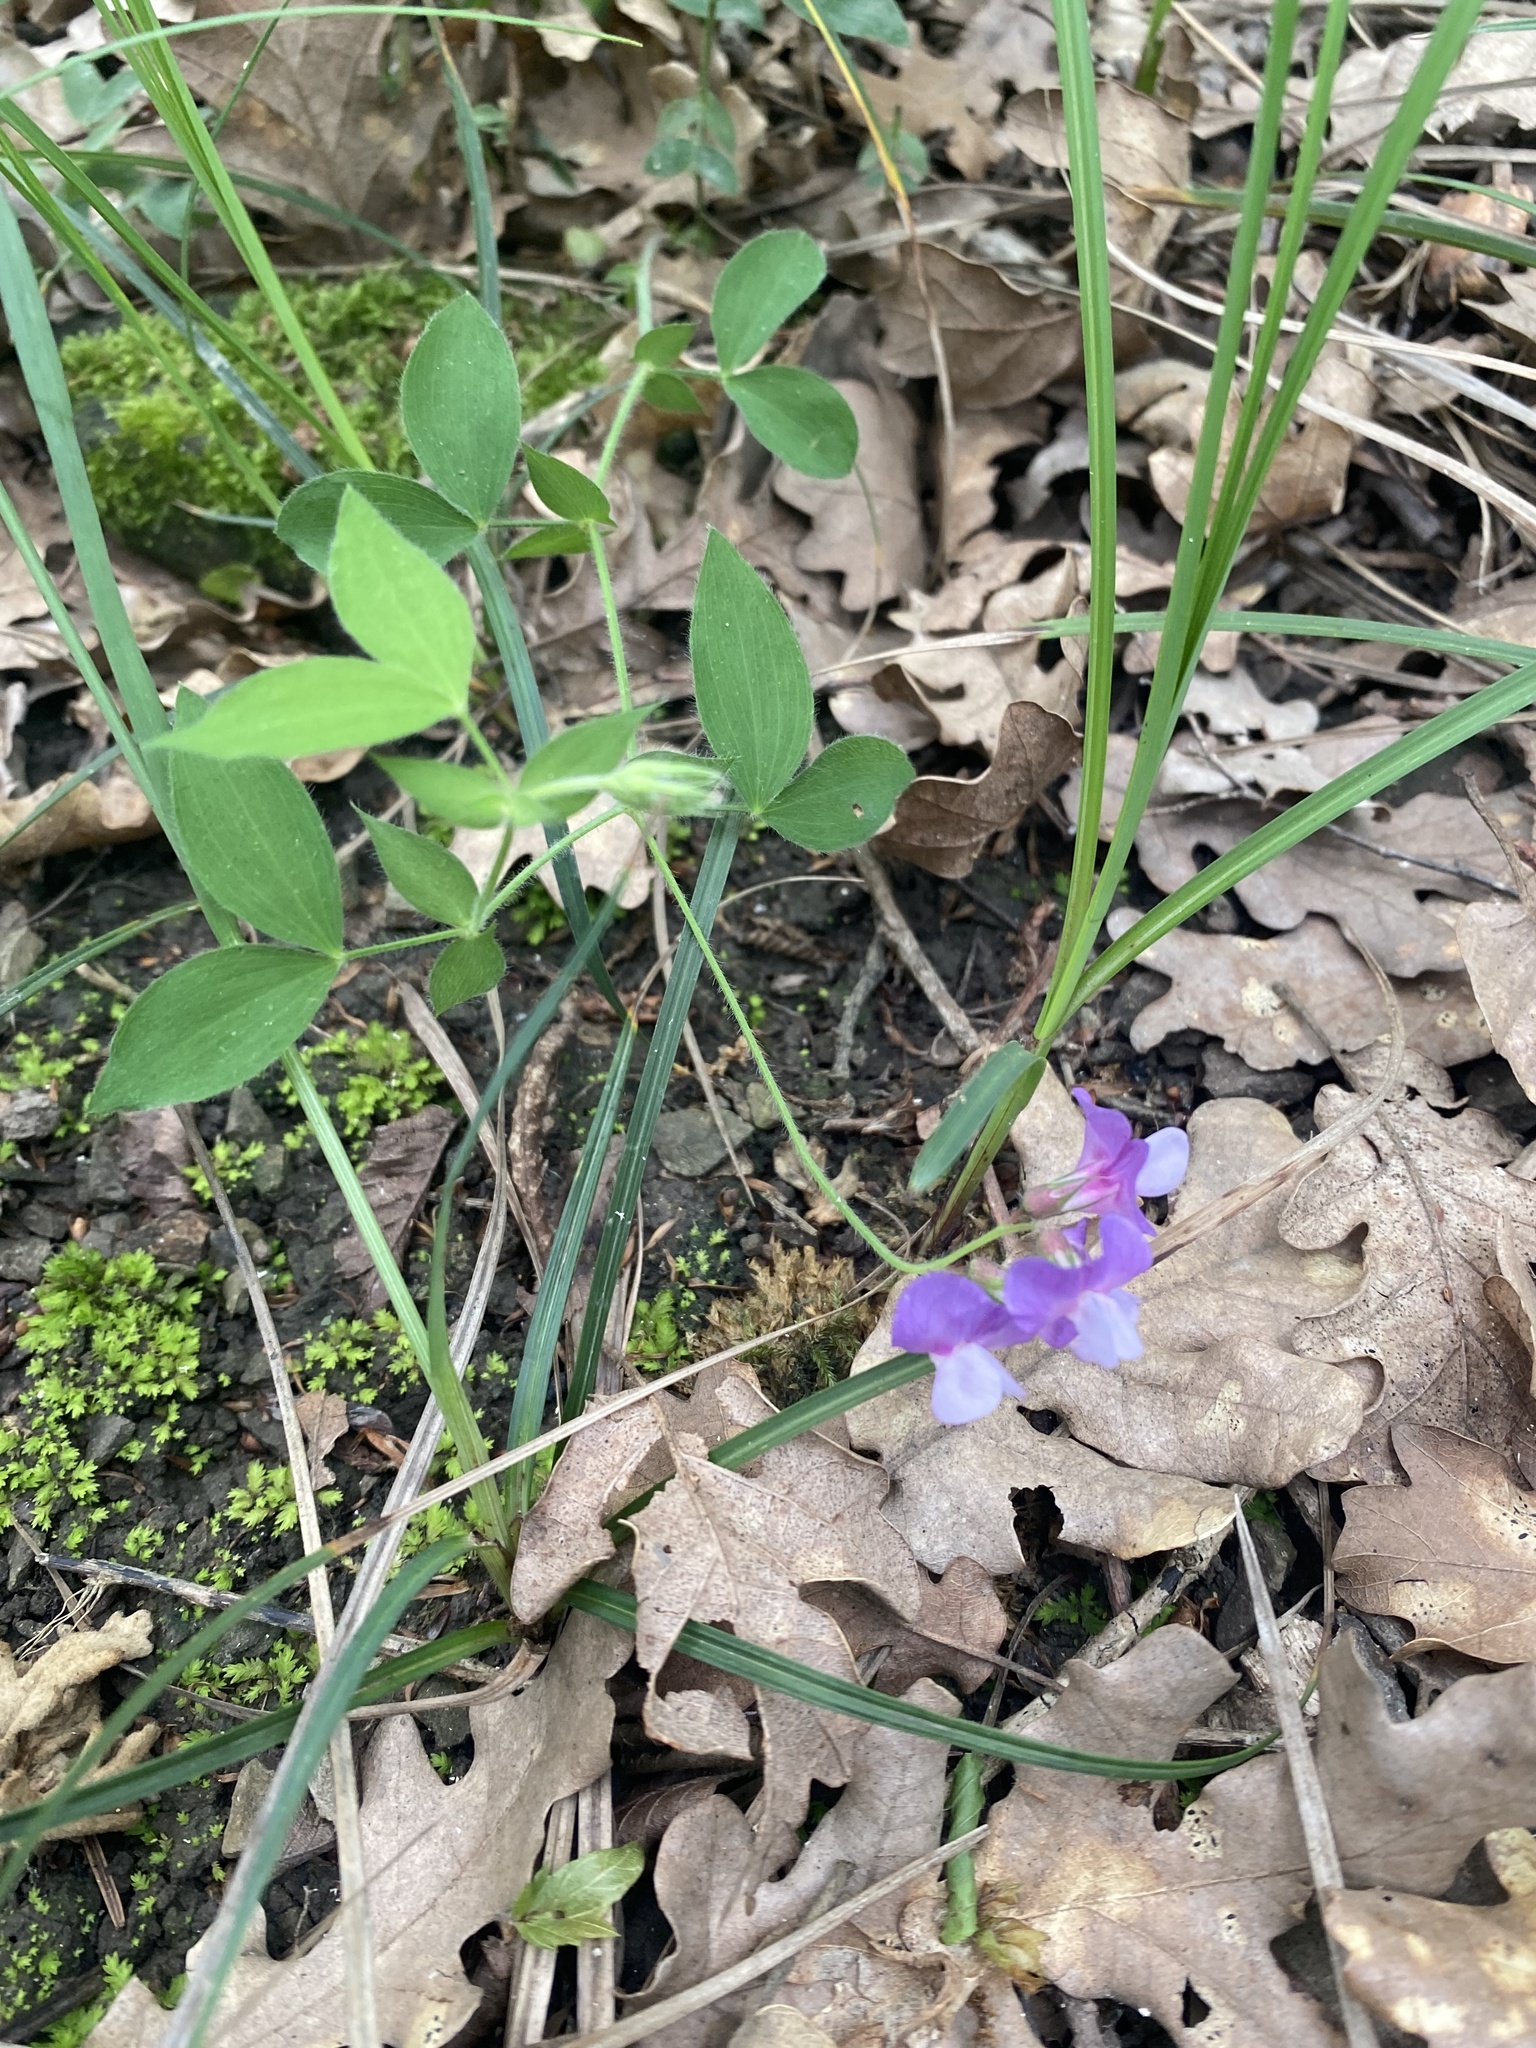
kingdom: Plantae
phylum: Tracheophyta
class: Magnoliopsida
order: Fabales
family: Fabaceae
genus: Lathyrus
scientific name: Lathyrus laxiflorus
